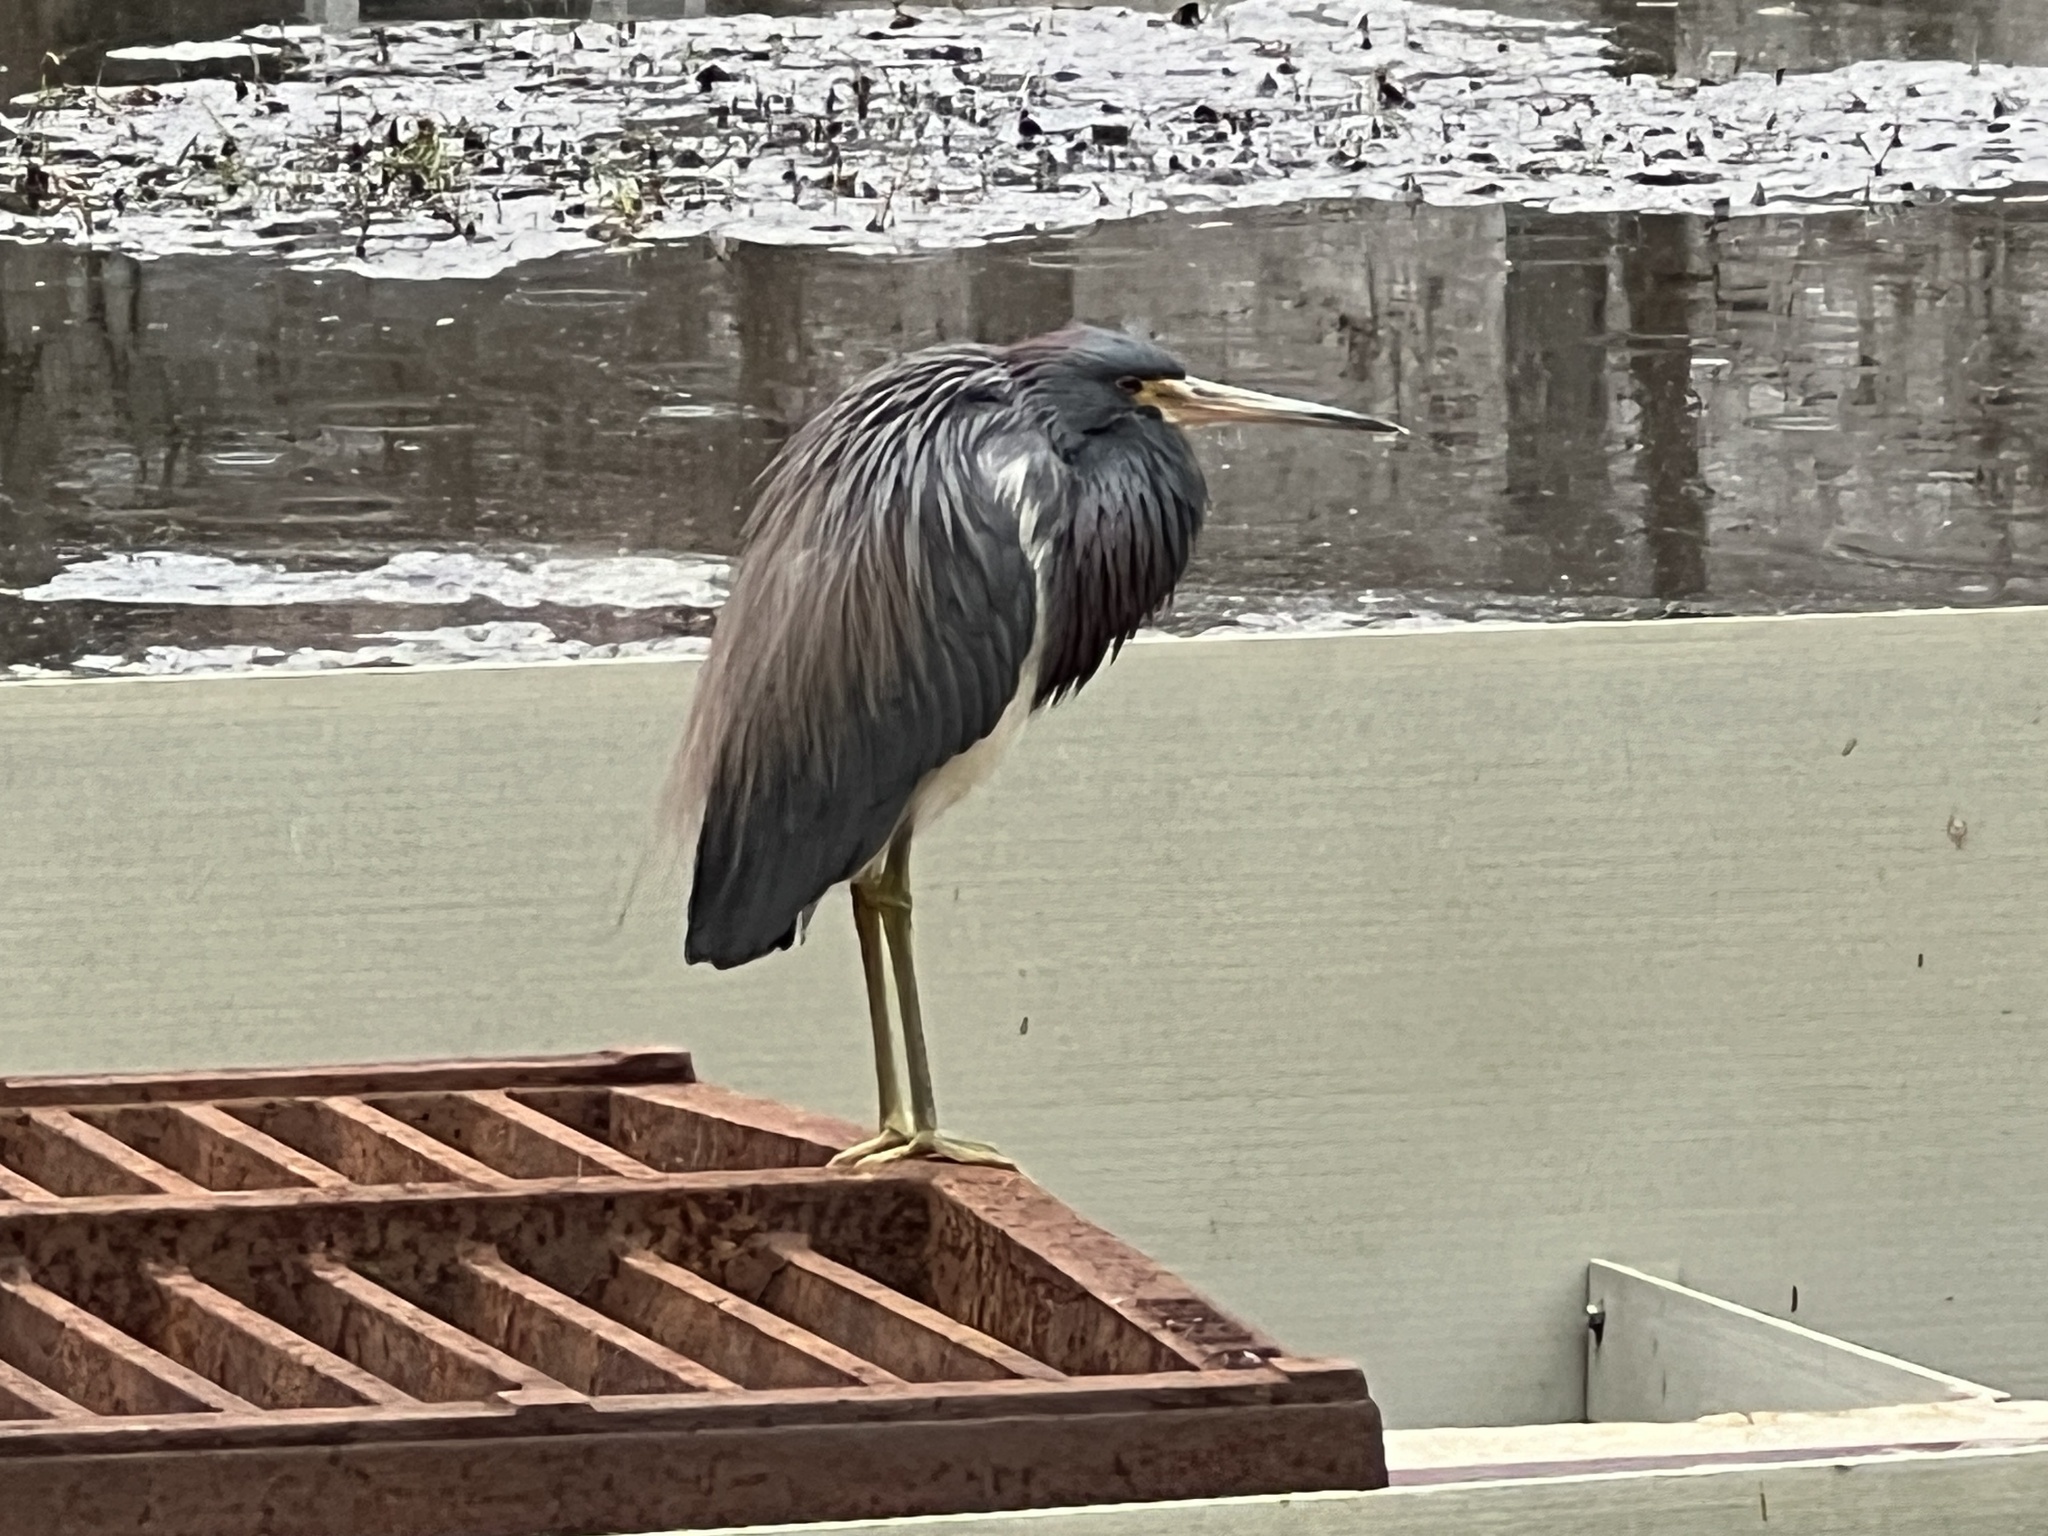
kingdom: Animalia
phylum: Chordata
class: Aves
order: Pelecaniformes
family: Ardeidae
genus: Egretta
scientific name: Egretta tricolor
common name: Tricolored heron
